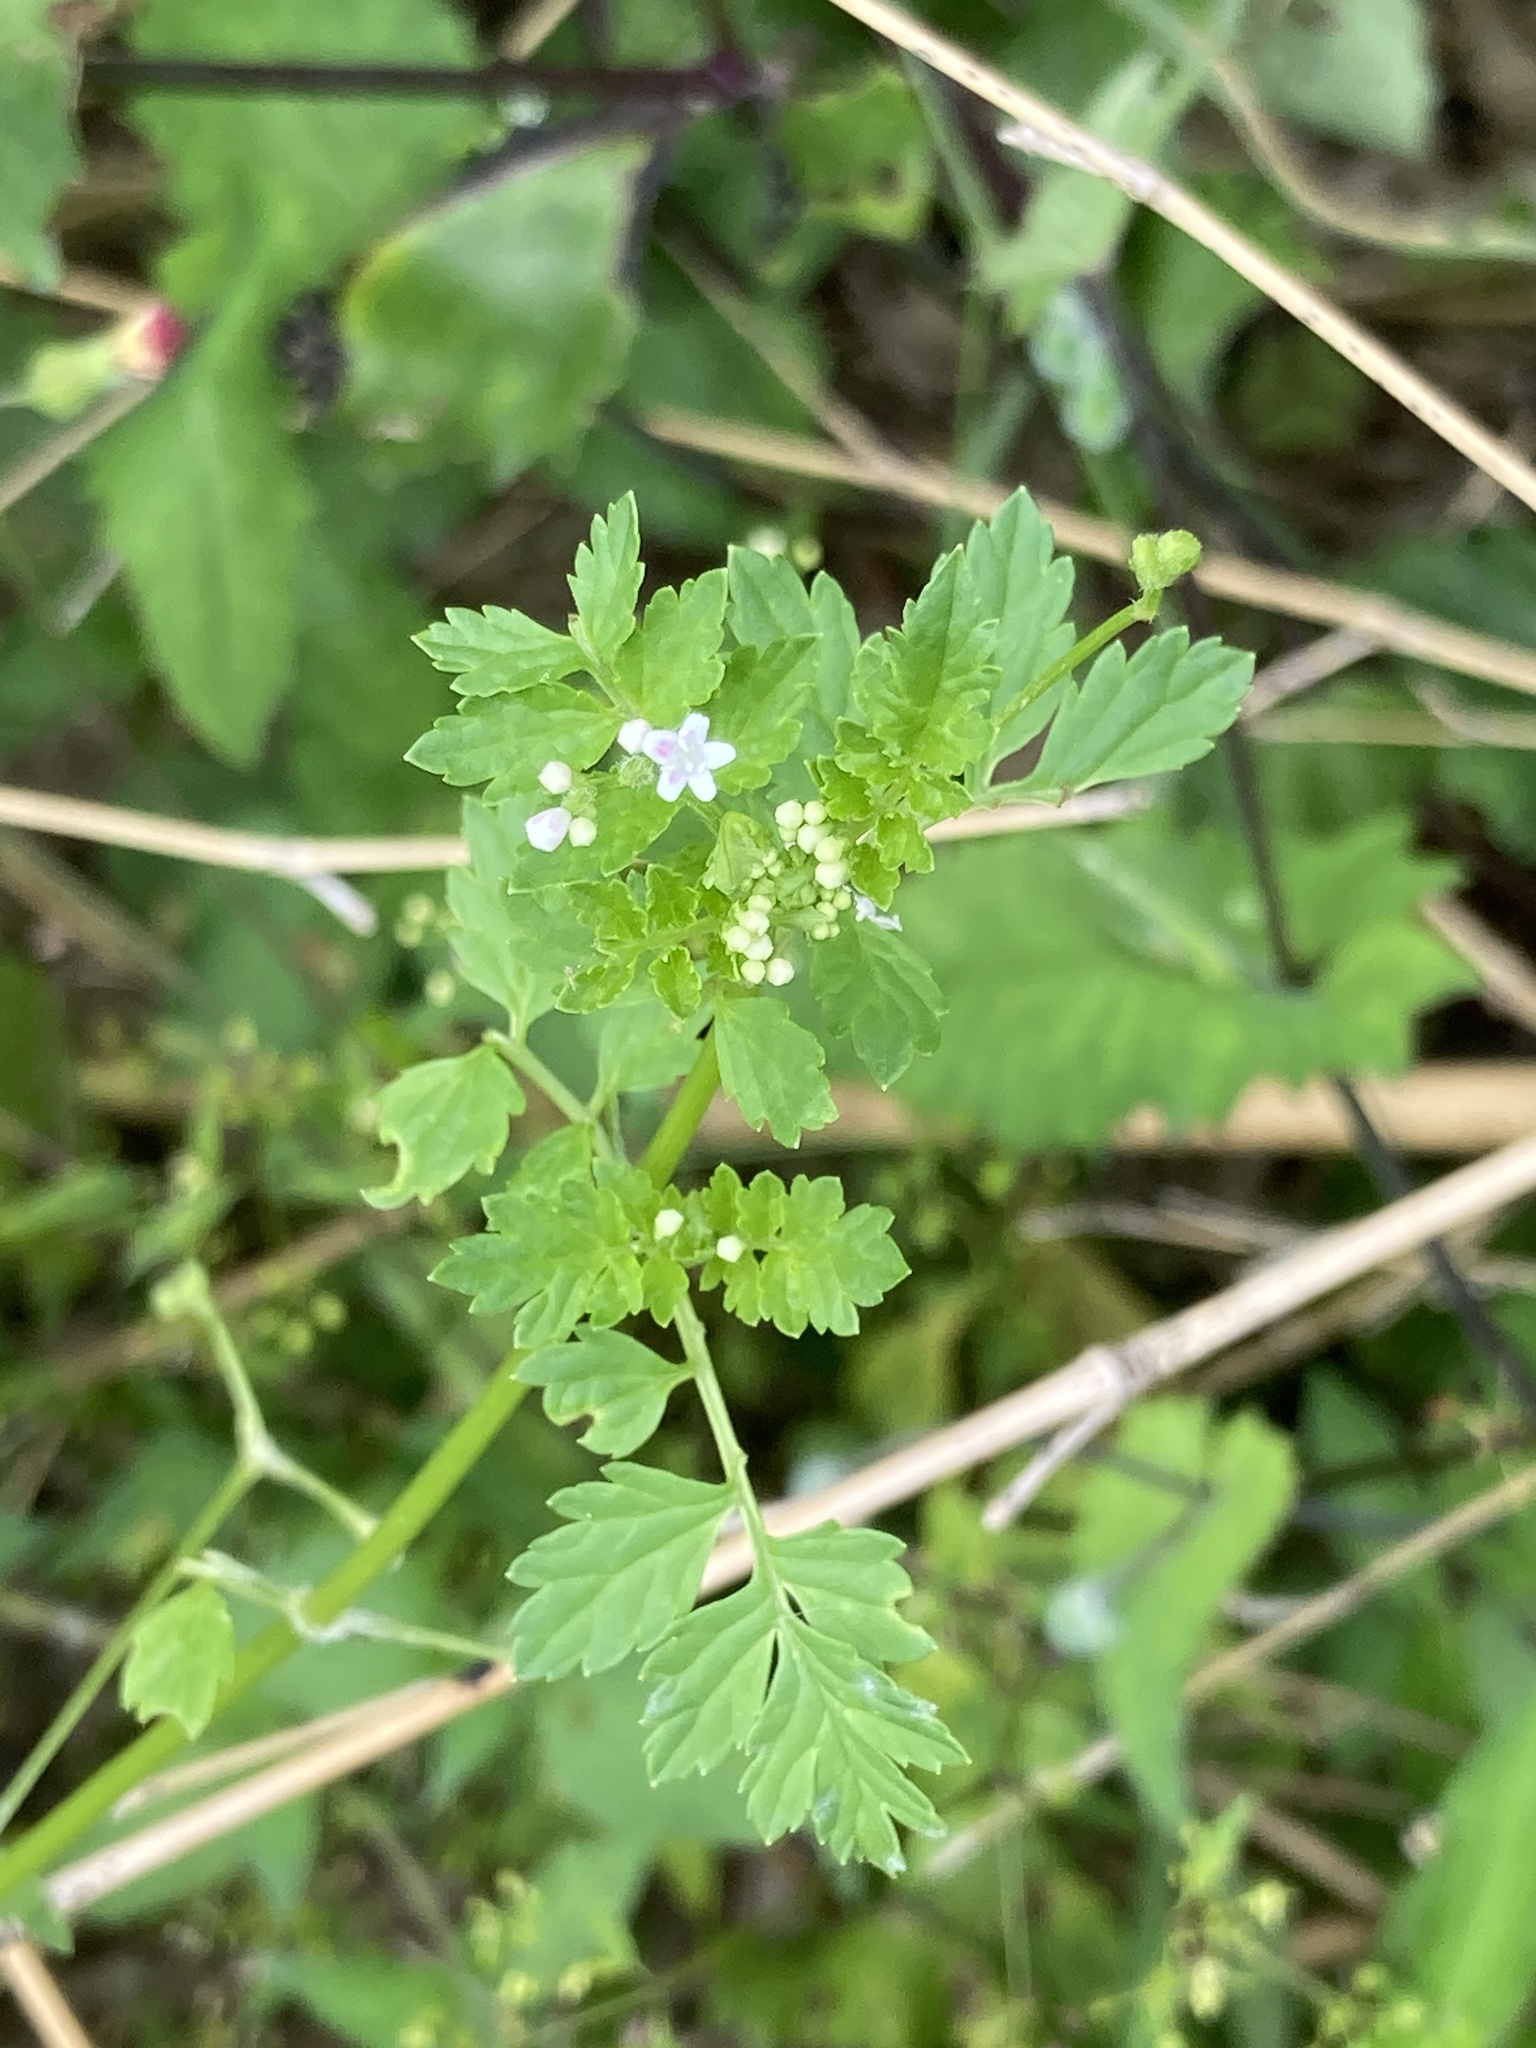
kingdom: Plantae
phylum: Tracheophyta
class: Magnoliopsida
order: Dipsacales
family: Caprifoliaceae
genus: Valeriana
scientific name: Valeriana chaerophylloides
